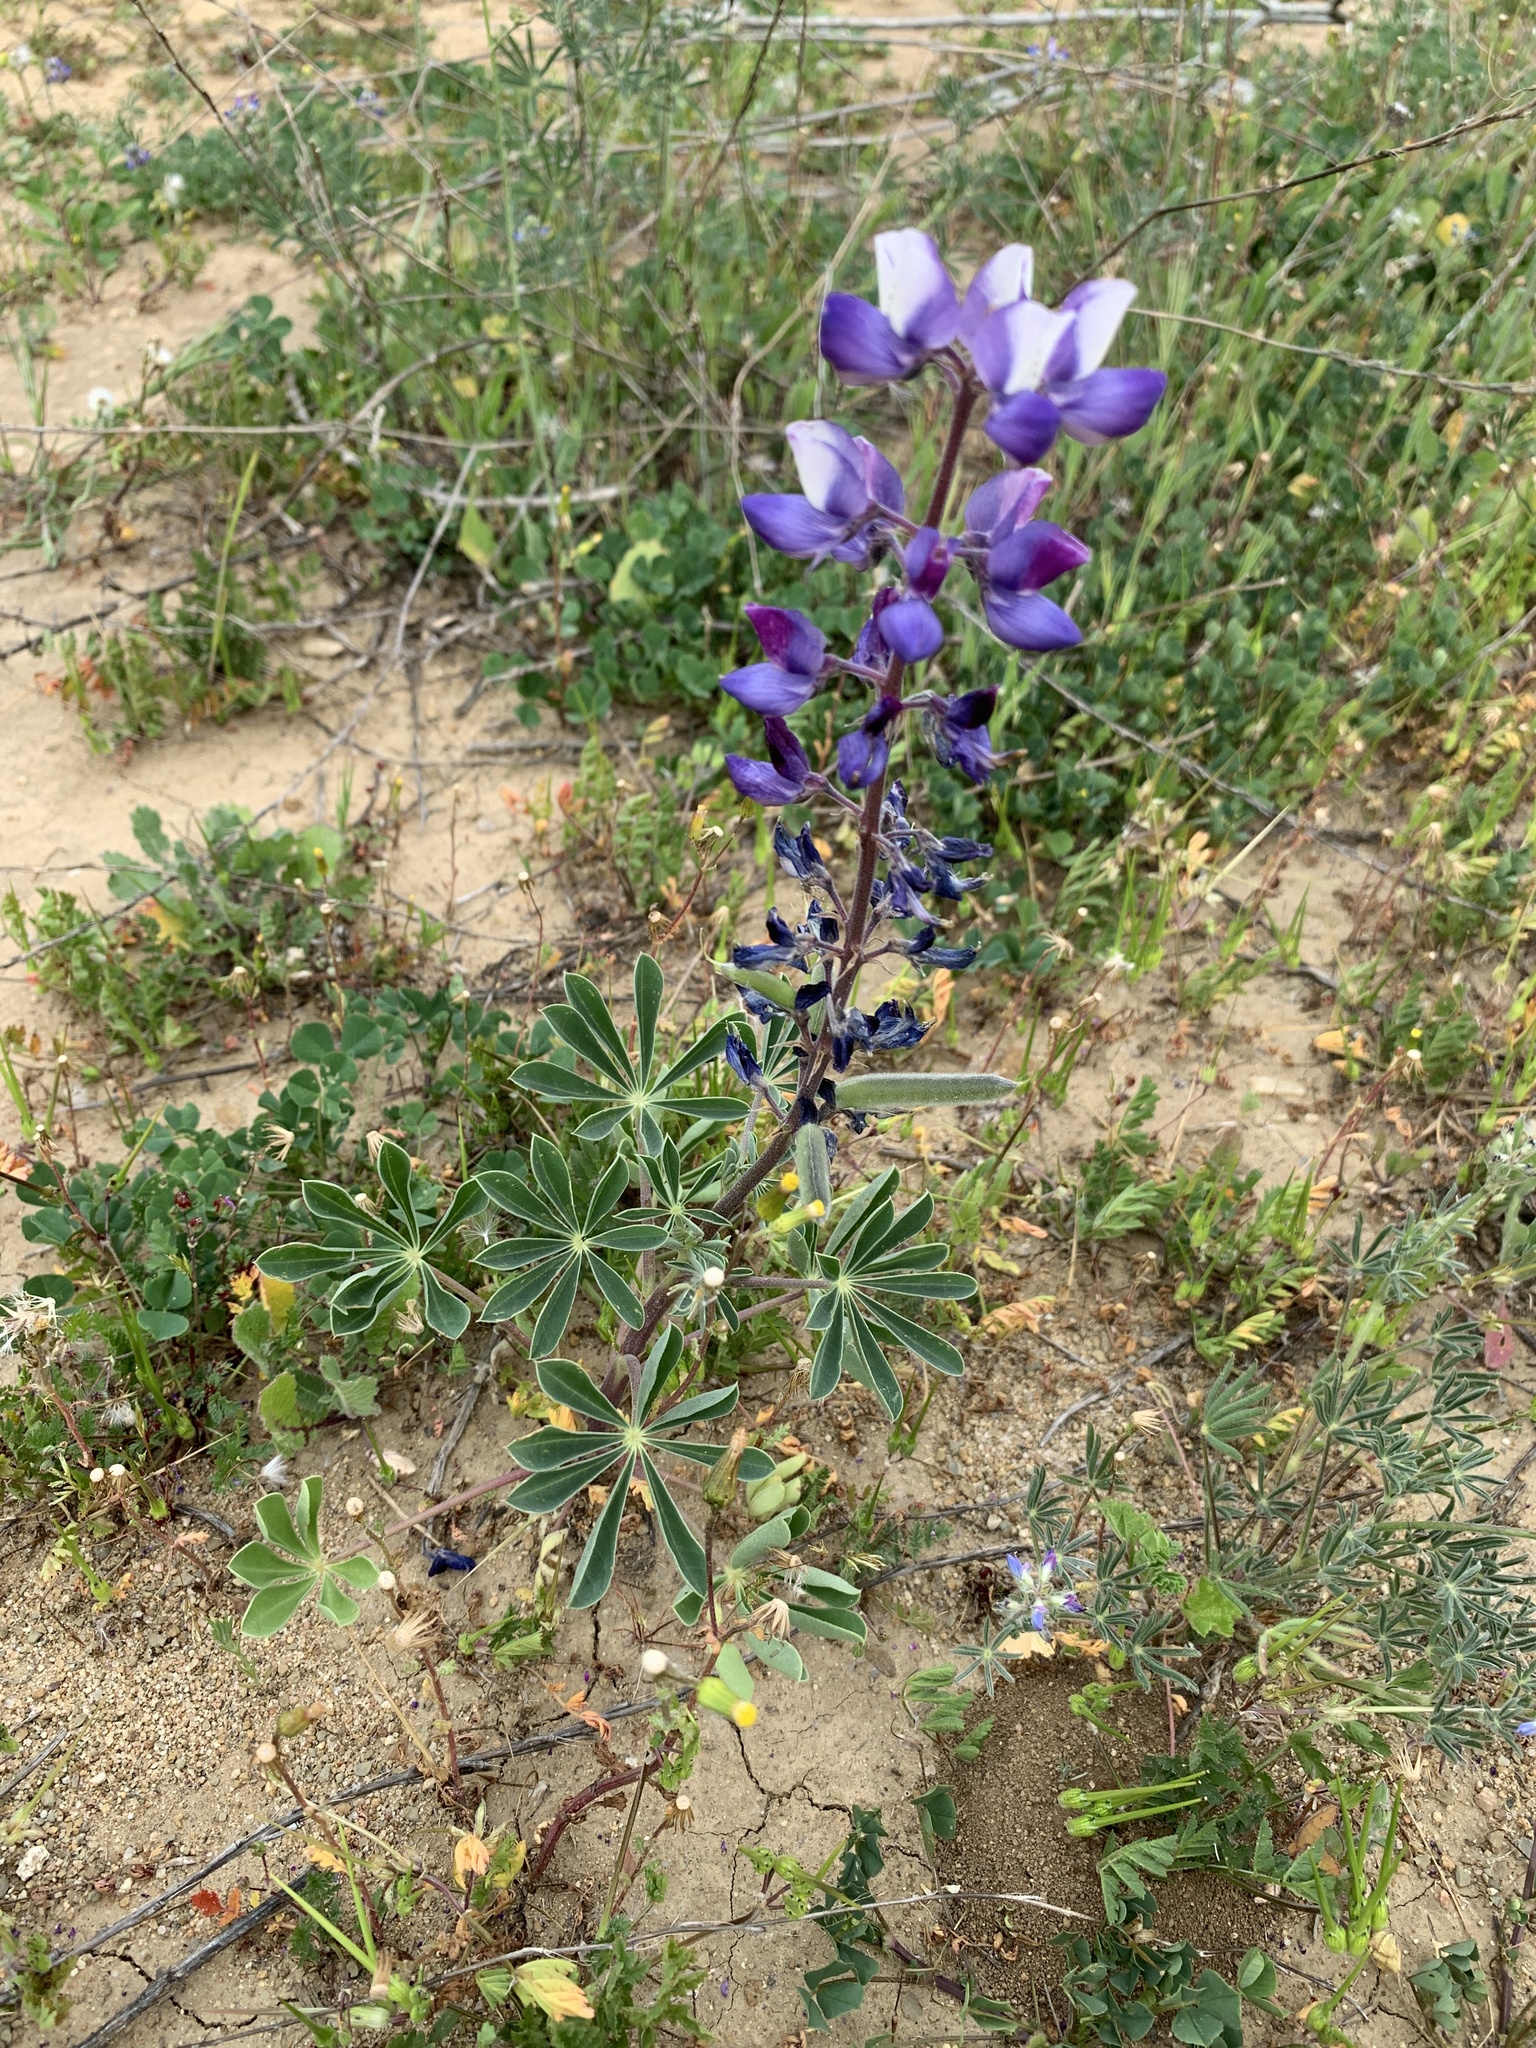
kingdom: Plantae
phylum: Tracheophyta
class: Magnoliopsida
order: Fabales
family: Fabaceae
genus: Lupinus
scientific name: Lupinus succulentus
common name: Arroyo lupine
